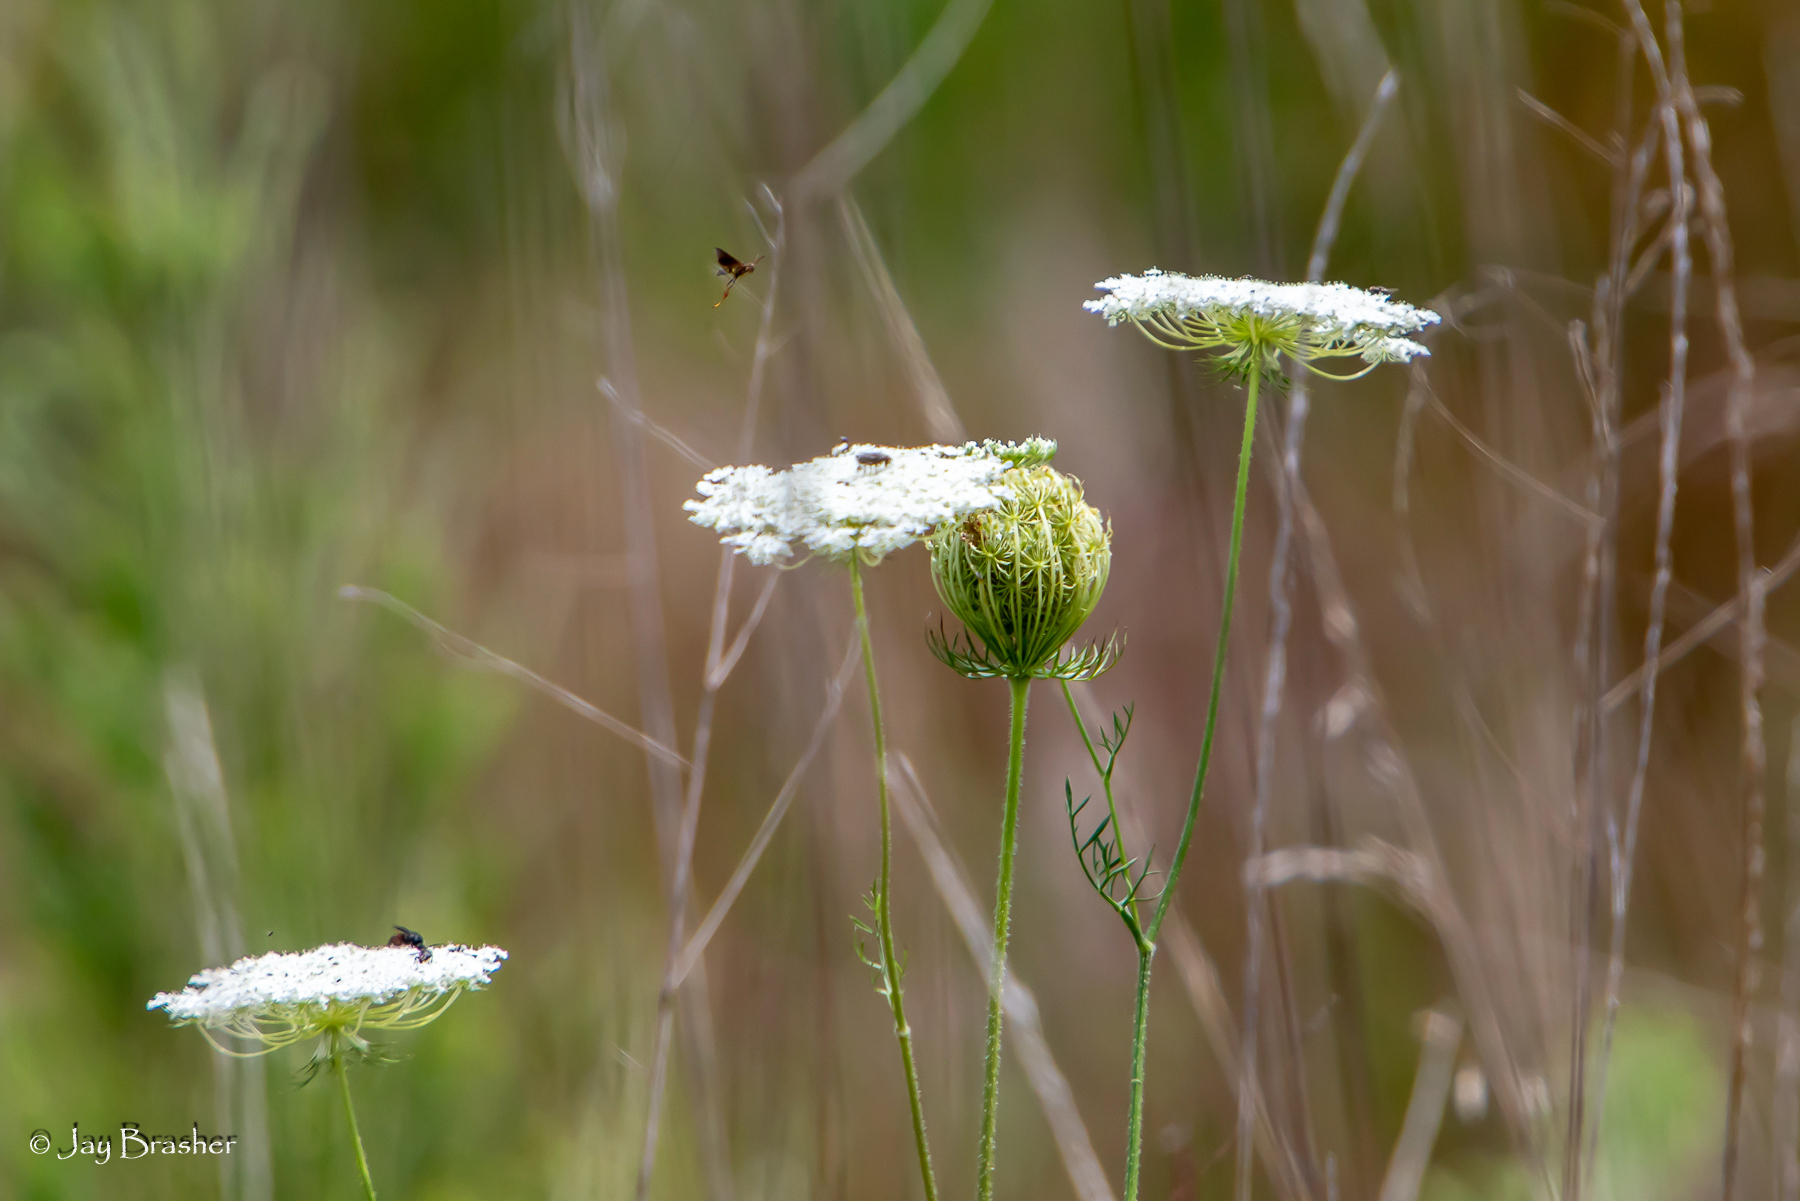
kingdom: Plantae
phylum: Tracheophyta
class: Magnoliopsida
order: Apiales
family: Apiaceae
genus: Daucus
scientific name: Daucus carota
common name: Wild carrot
